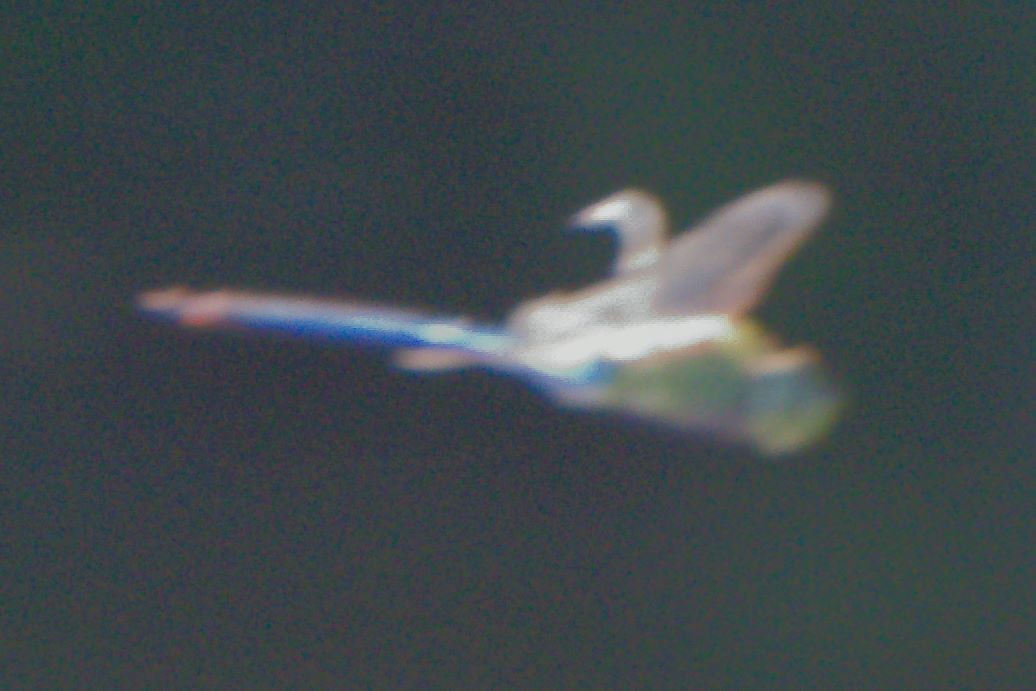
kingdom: Animalia
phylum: Arthropoda
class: Insecta
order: Odonata
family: Aeshnidae
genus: Anax
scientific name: Anax junius
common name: Common green darner
